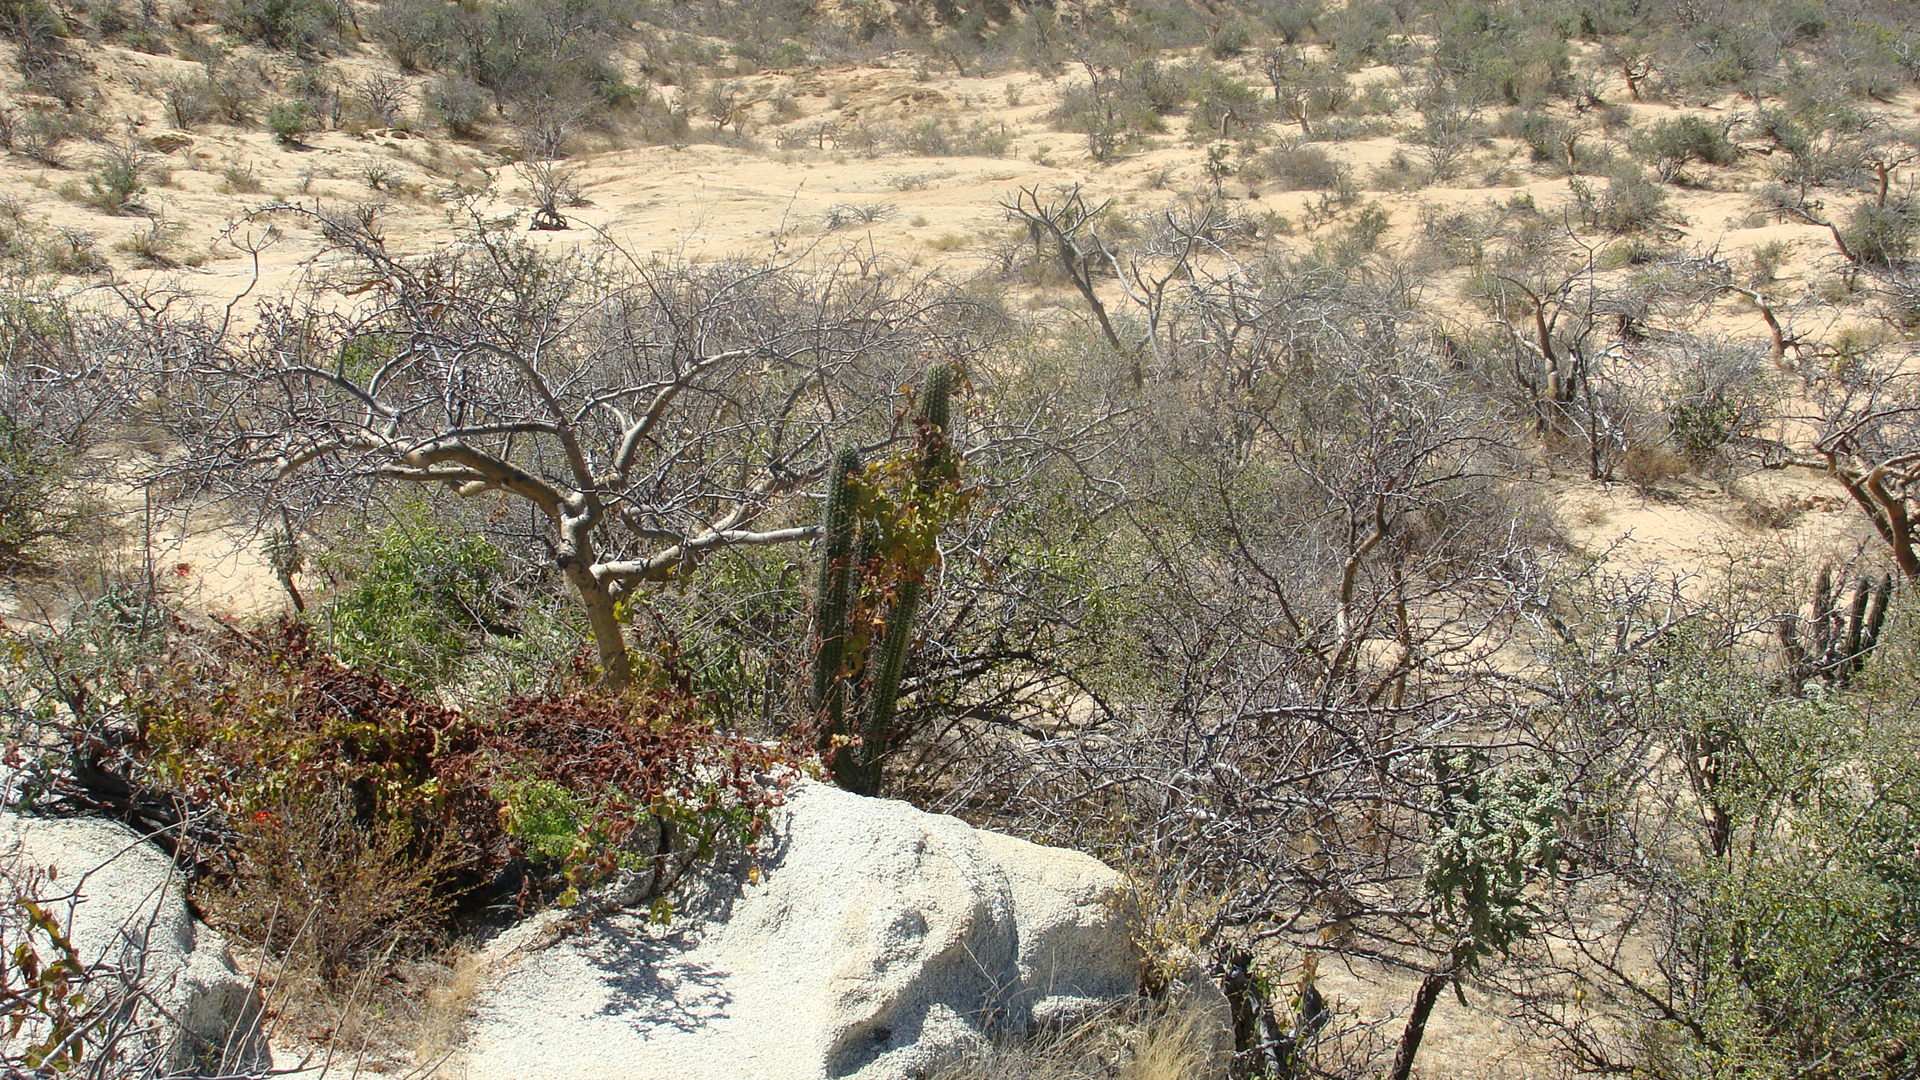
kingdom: Plantae
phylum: Tracheophyta
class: Magnoliopsida
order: Caryophyllales
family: Cactaceae
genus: Stenocereus
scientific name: Stenocereus thurberi
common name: Organ pipe cactus
